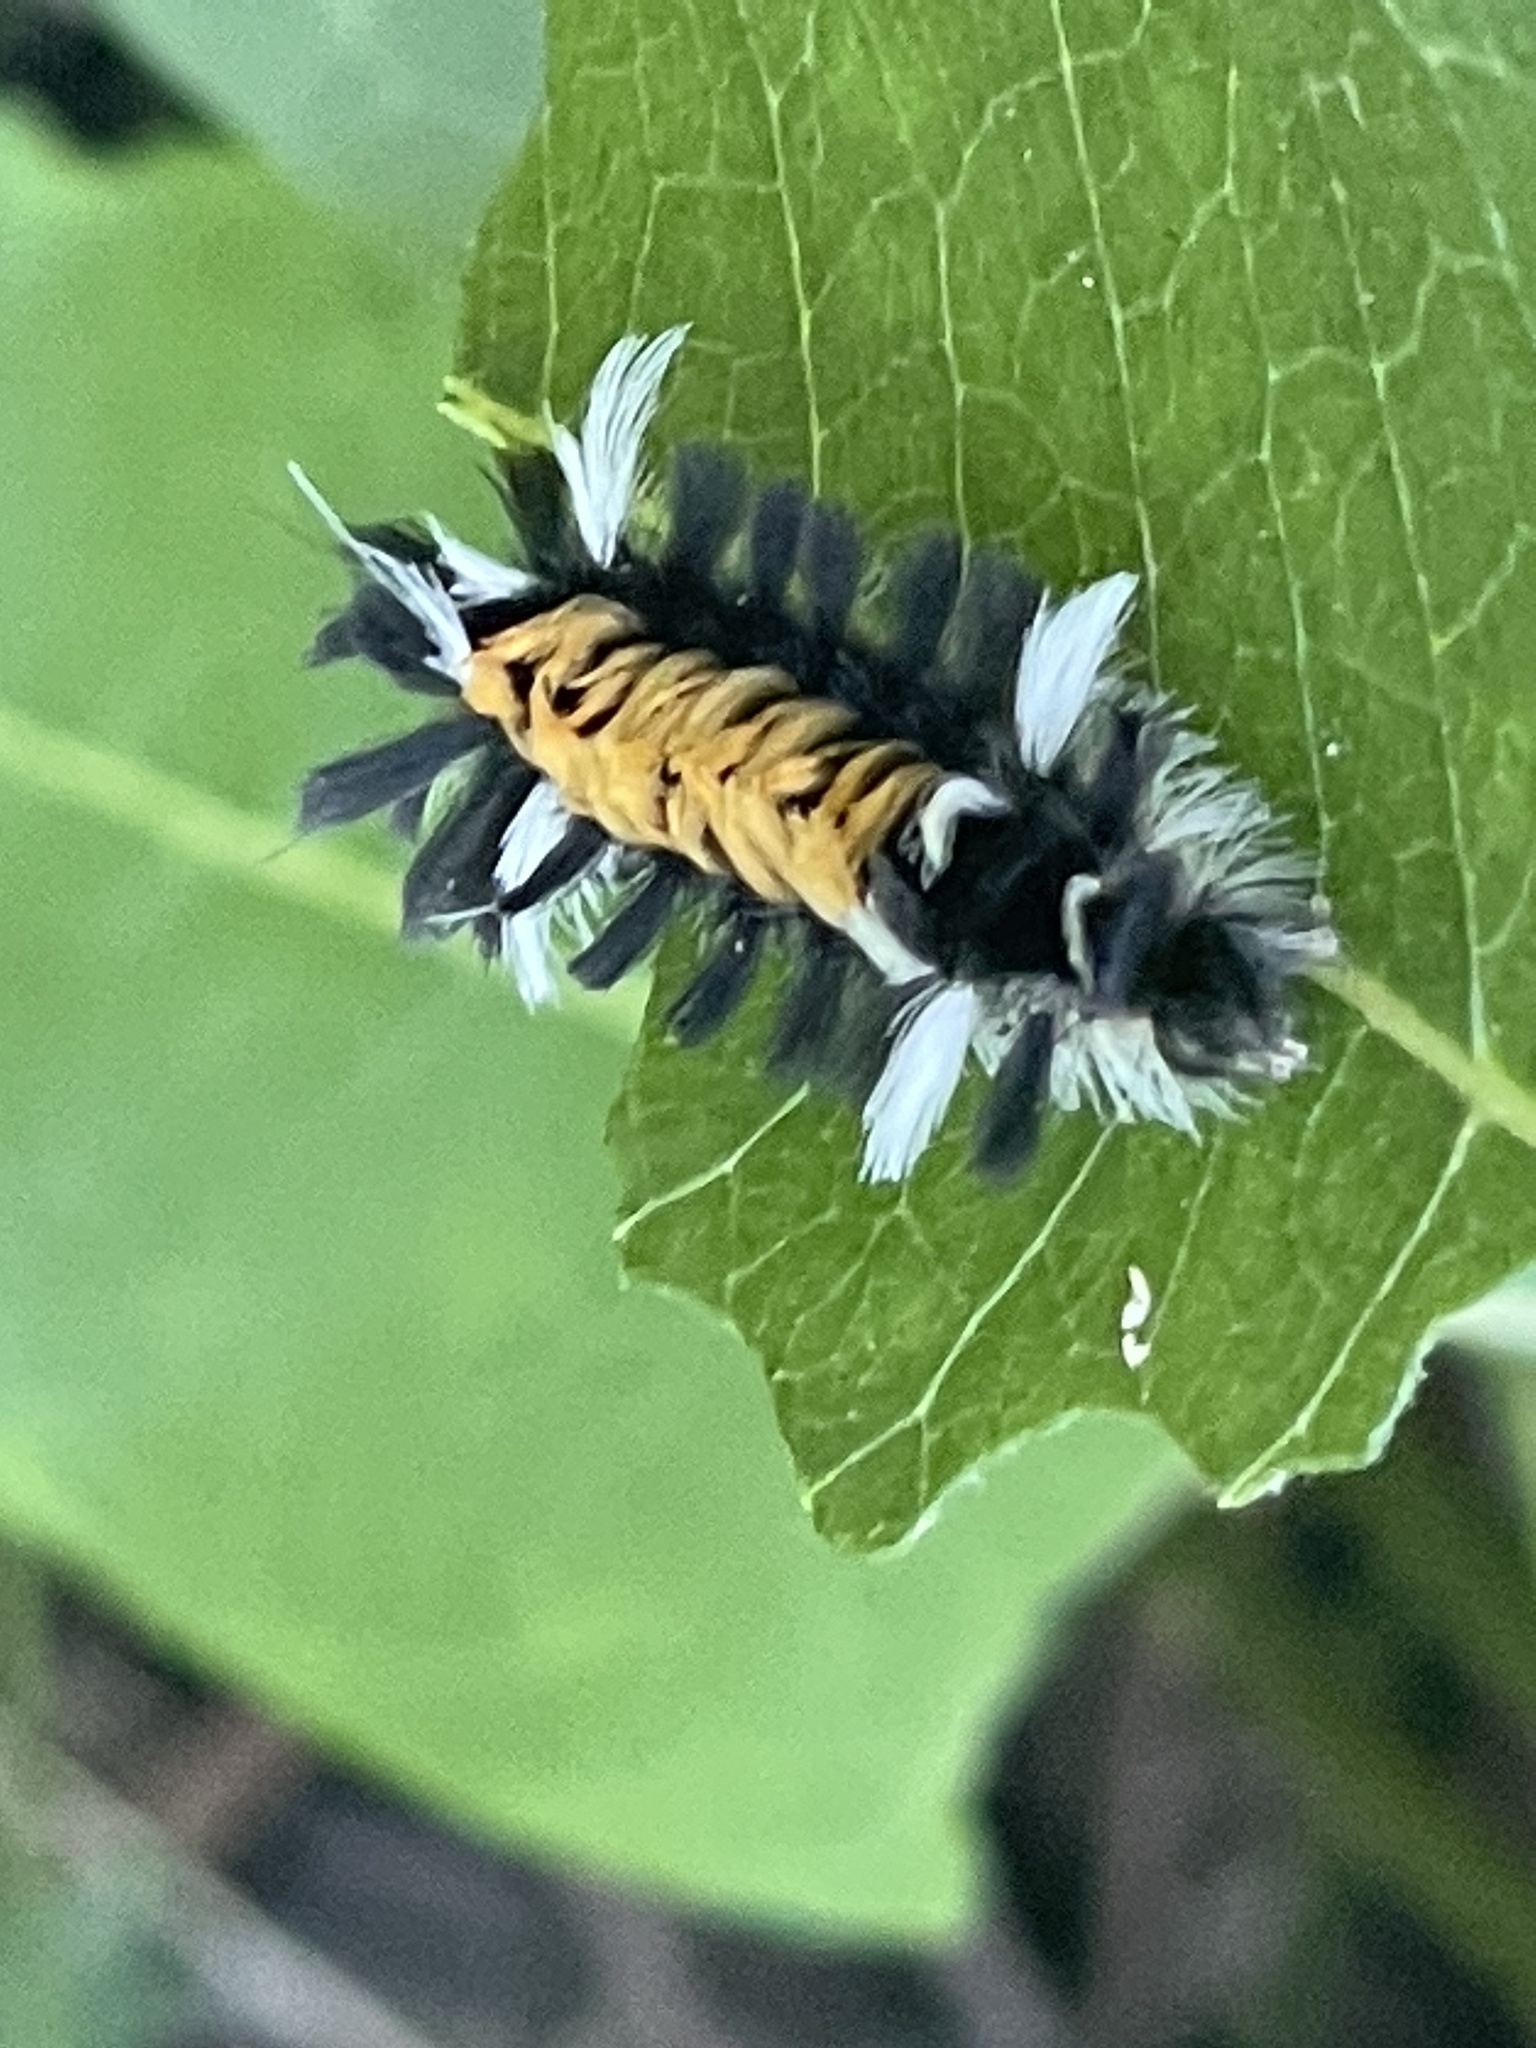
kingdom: Animalia
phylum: Arthropoda
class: Insecta
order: Lepidoptera
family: Erebidae
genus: Euchaetes
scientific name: Euchaetes egle
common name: Milkweed tussock moth
